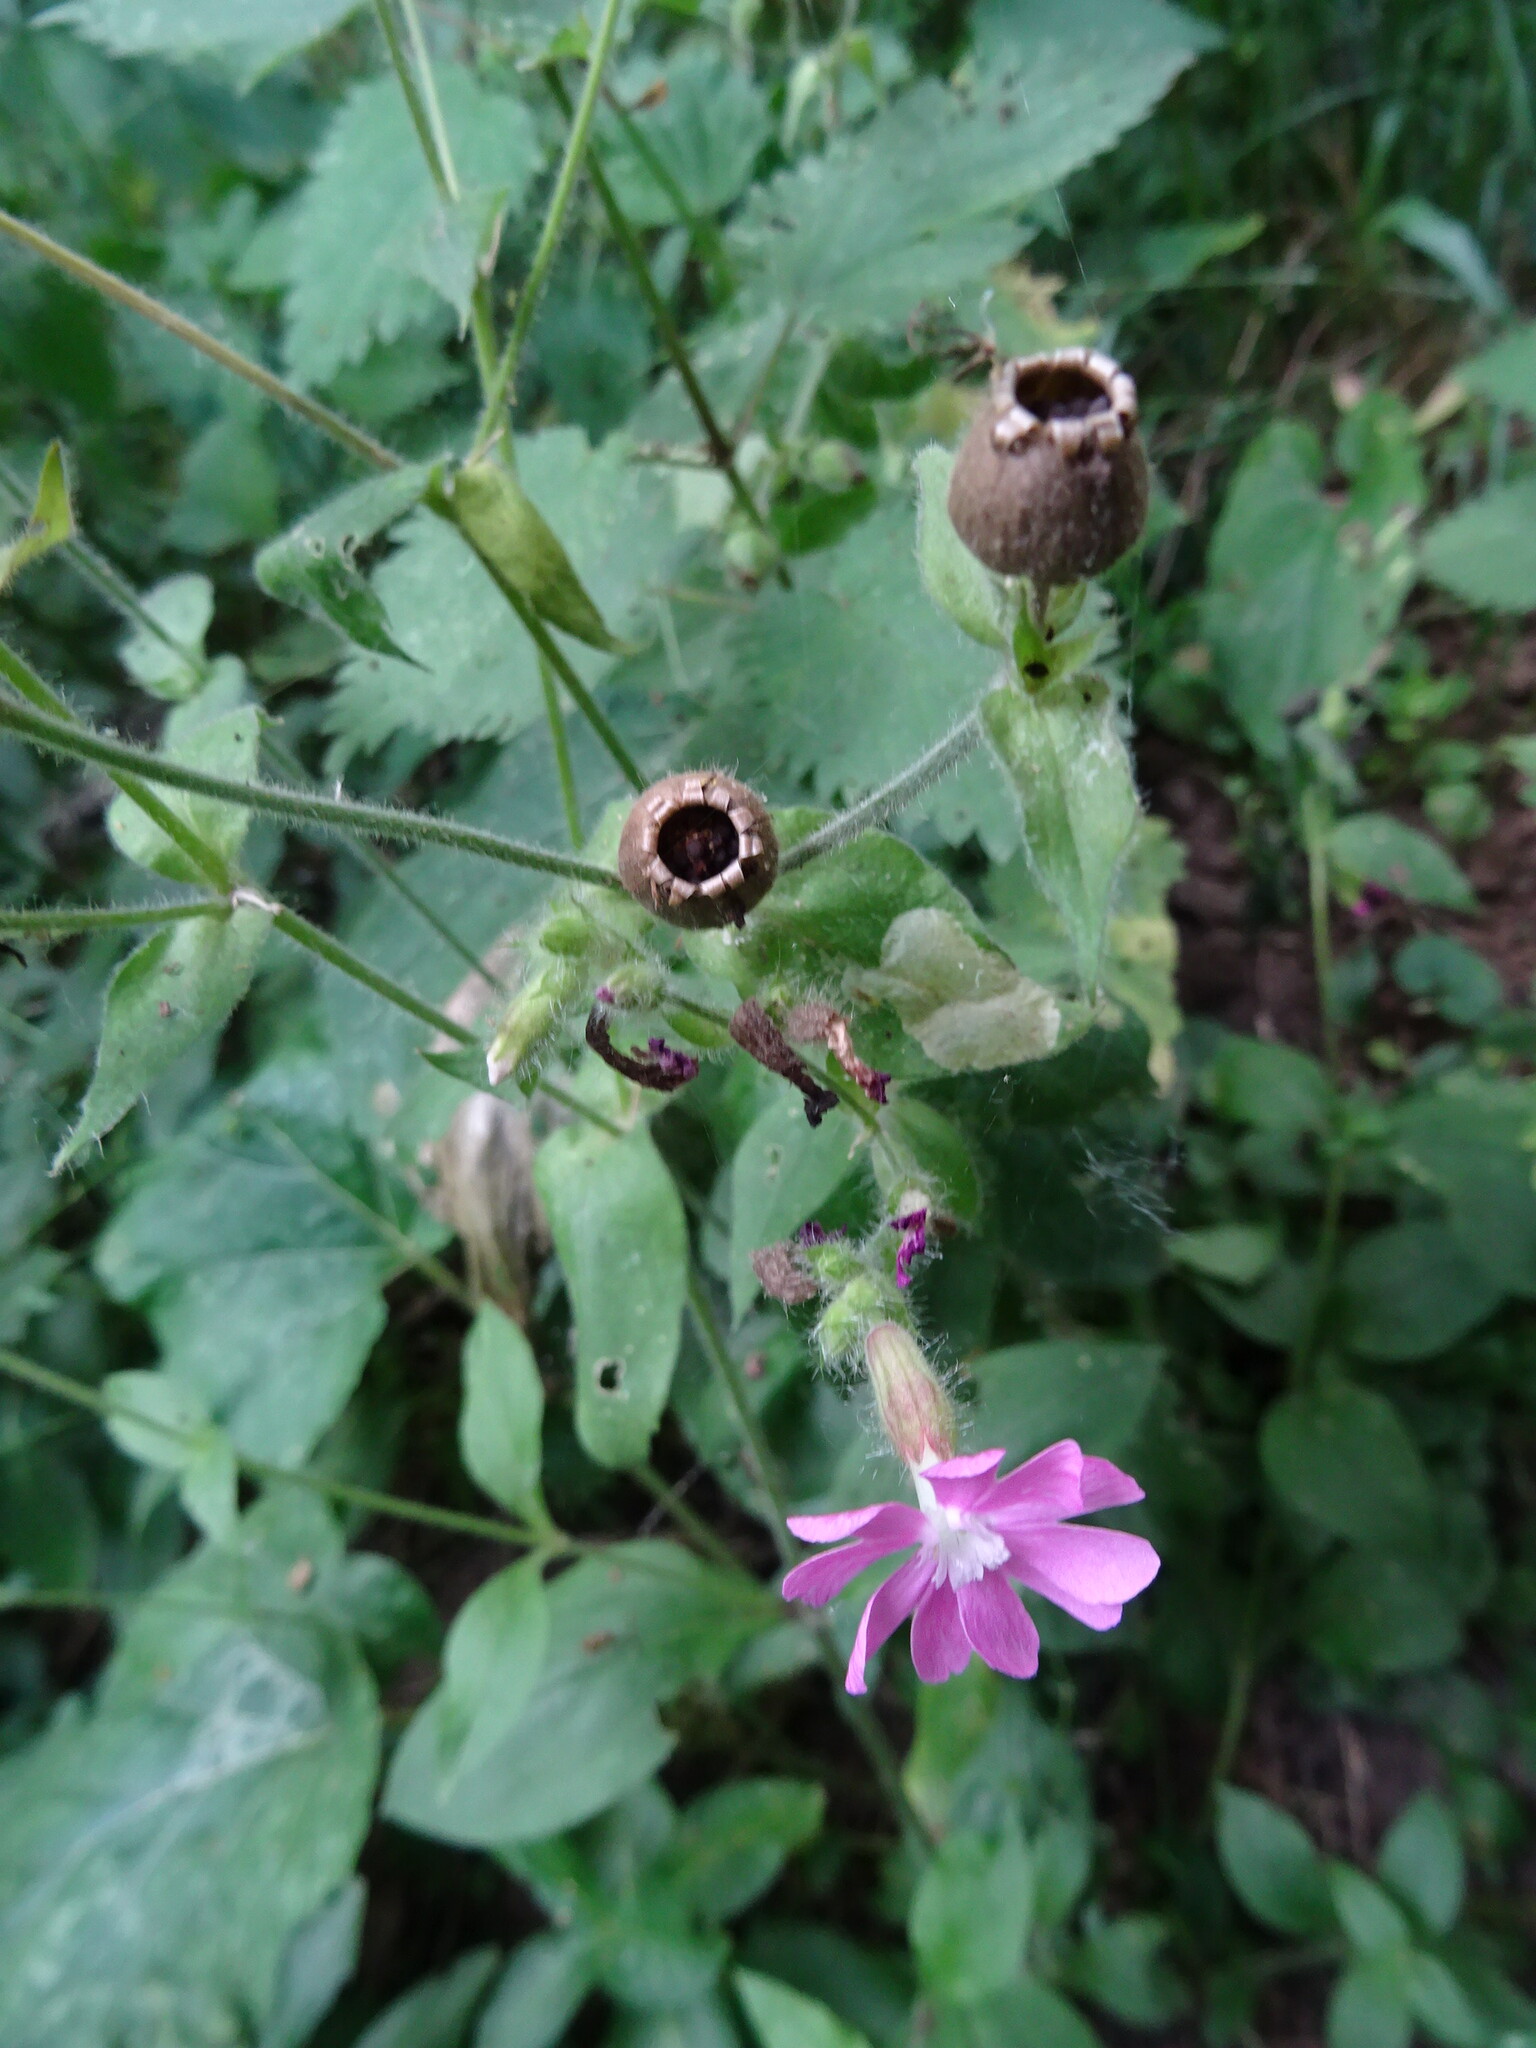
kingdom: Plantae
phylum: Tracheophyta
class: Magnoliopsida
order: Caryophyllales
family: Caryophyllaceae
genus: Silene
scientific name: Silene dioica
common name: Red campion
